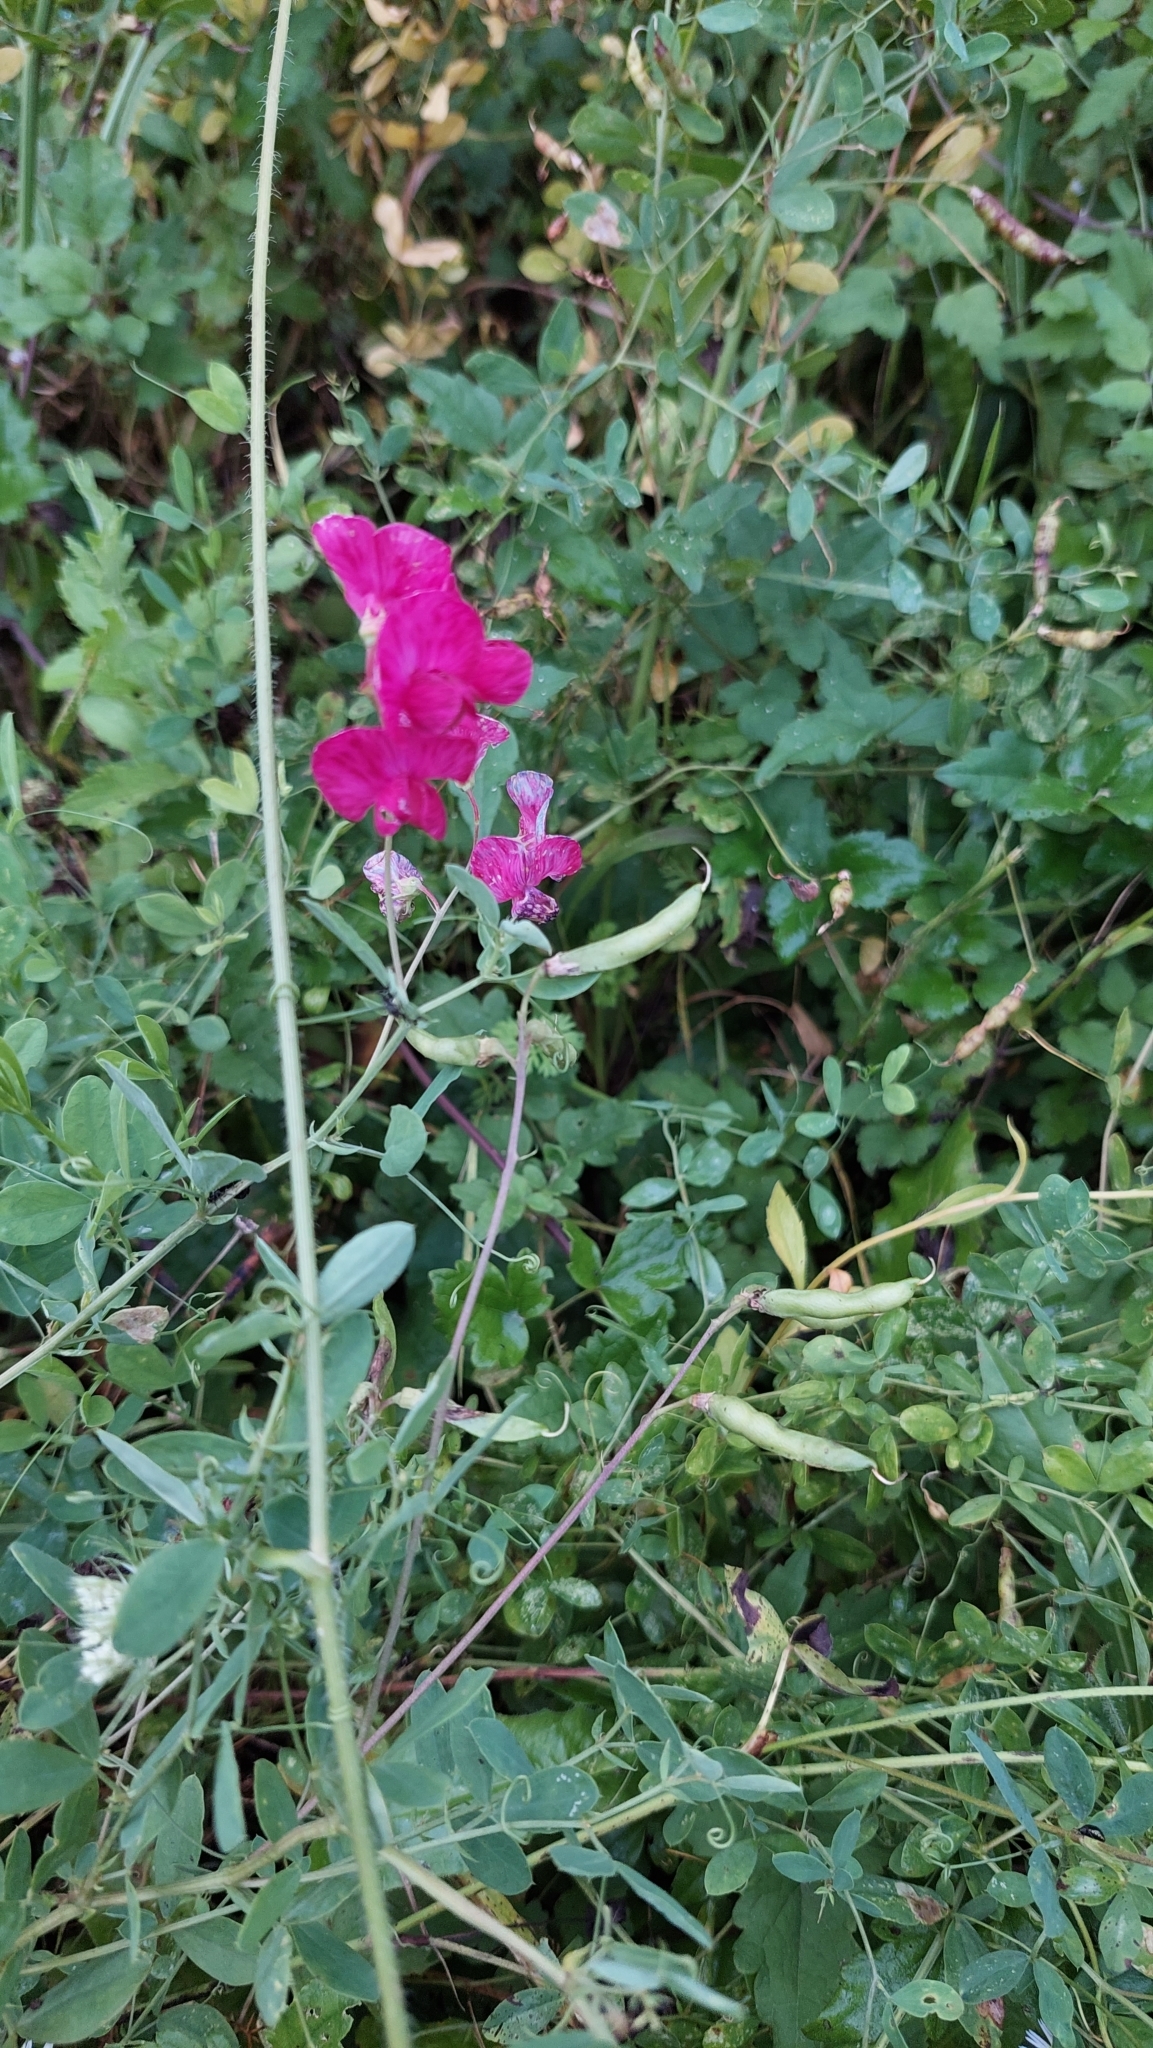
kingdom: Plantae
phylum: Tracheophyta
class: Magnoliopsida
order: Fabales
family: Fabaceae
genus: Lathyrus
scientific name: Lathyrus tuberosus
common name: Tuberous pea
